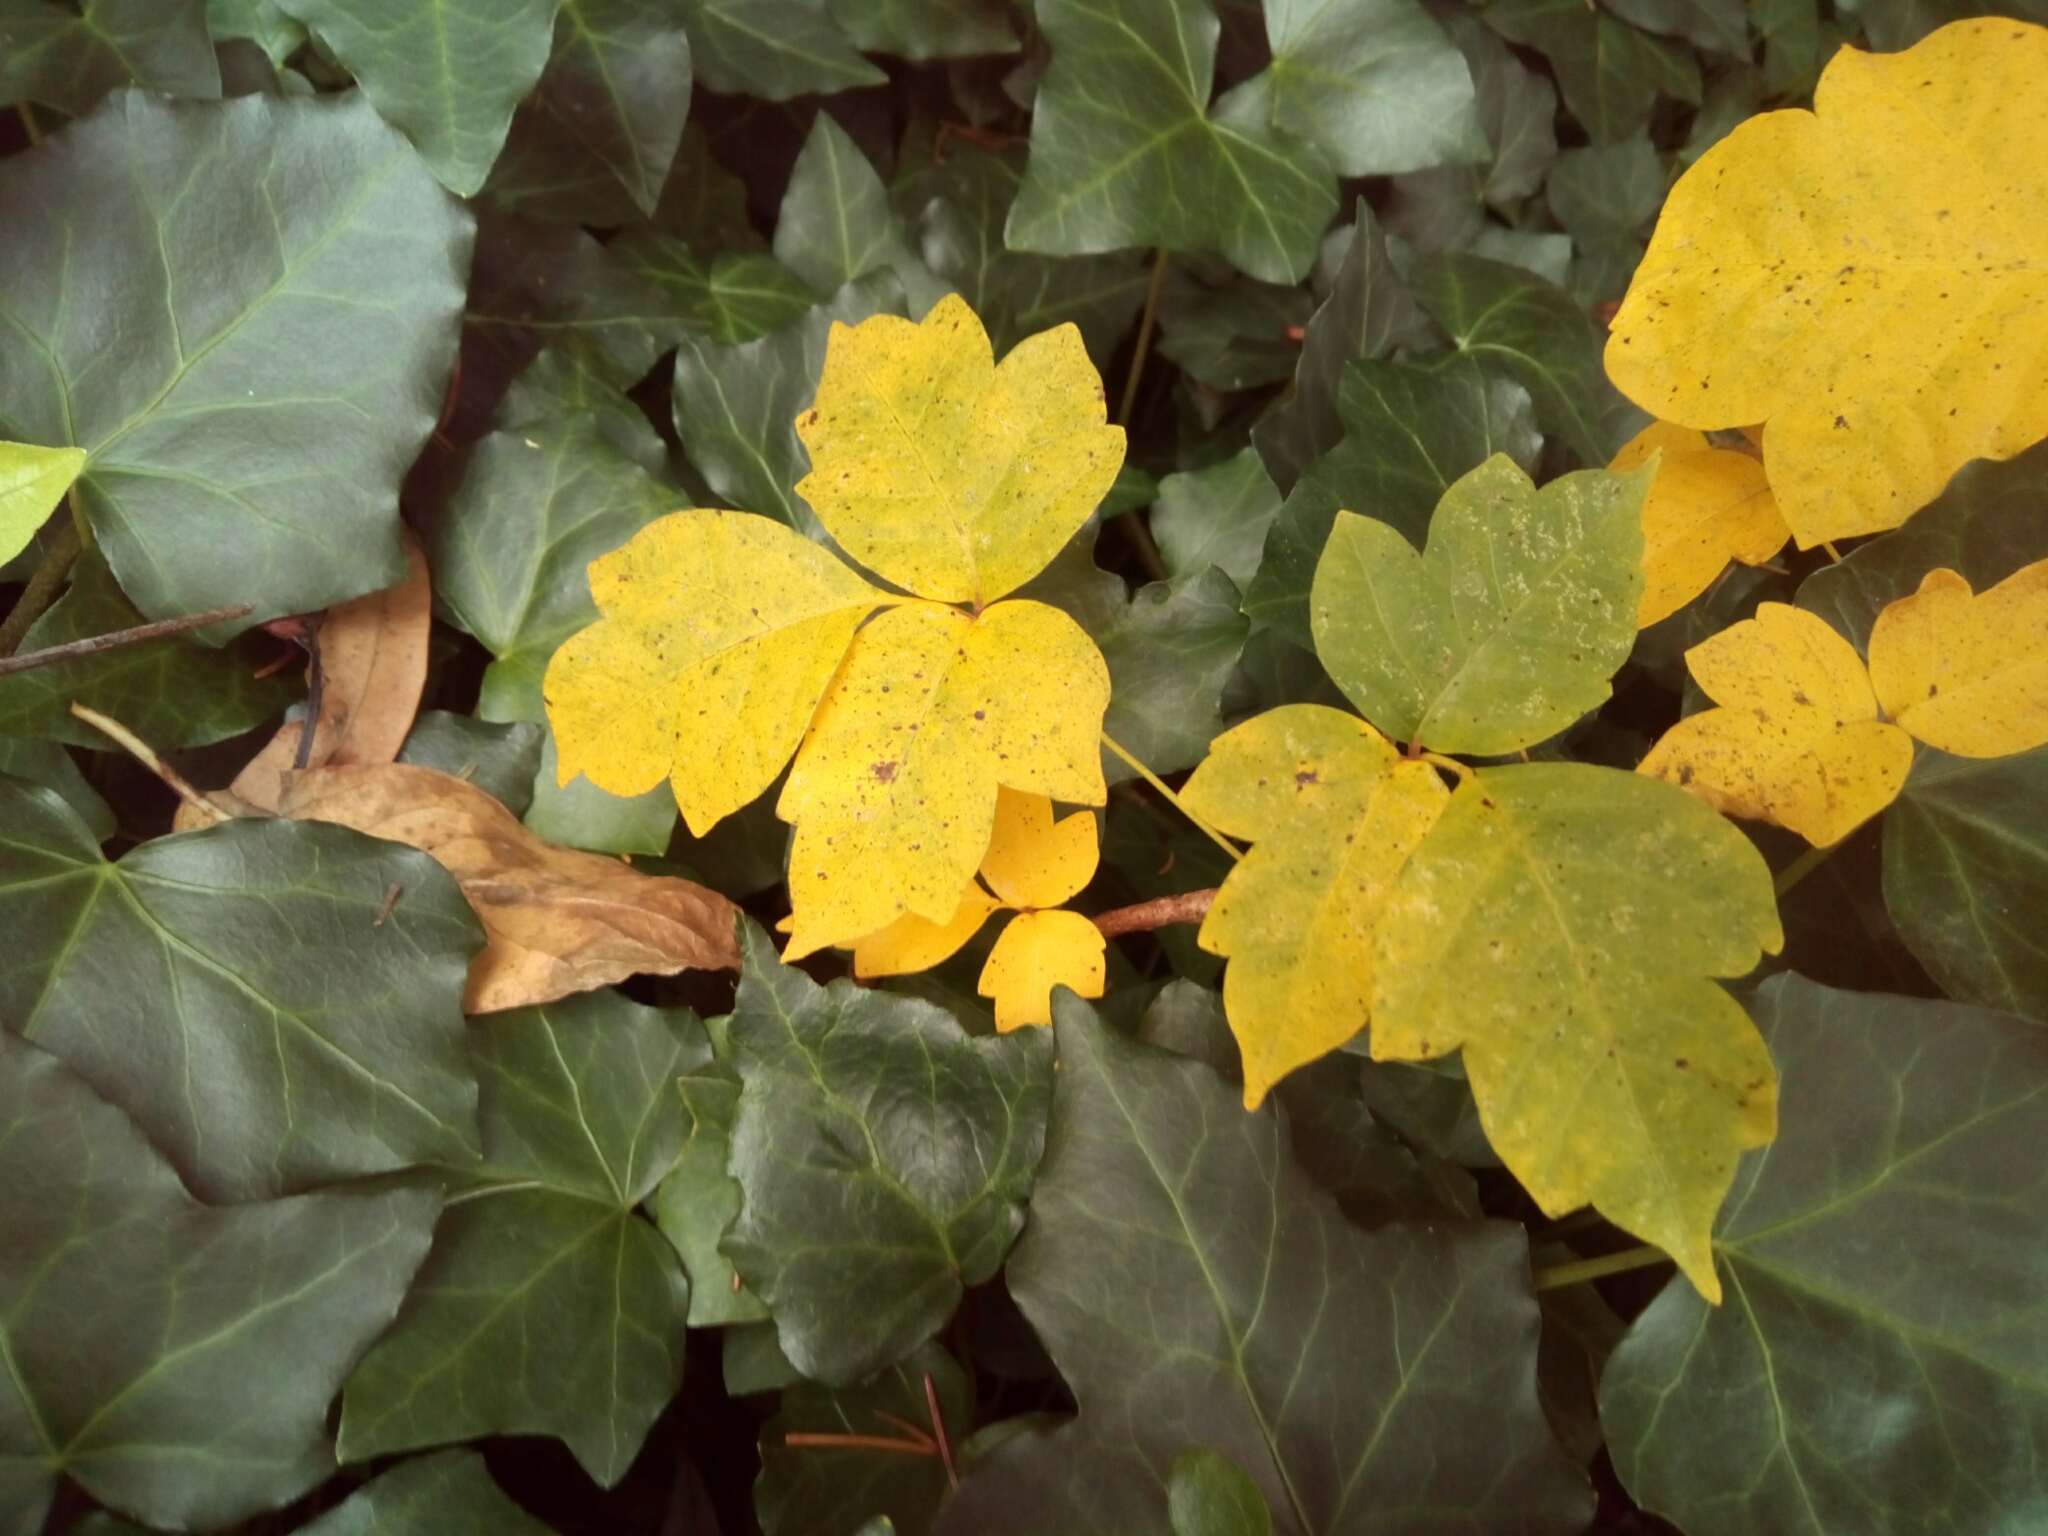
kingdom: Plantae
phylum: Tracheophyta
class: Magnoliopsida
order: Sapindales
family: Anacardiaceae
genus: Toxicodendron
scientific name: Toxicodendron radicans
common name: Poison ivy
